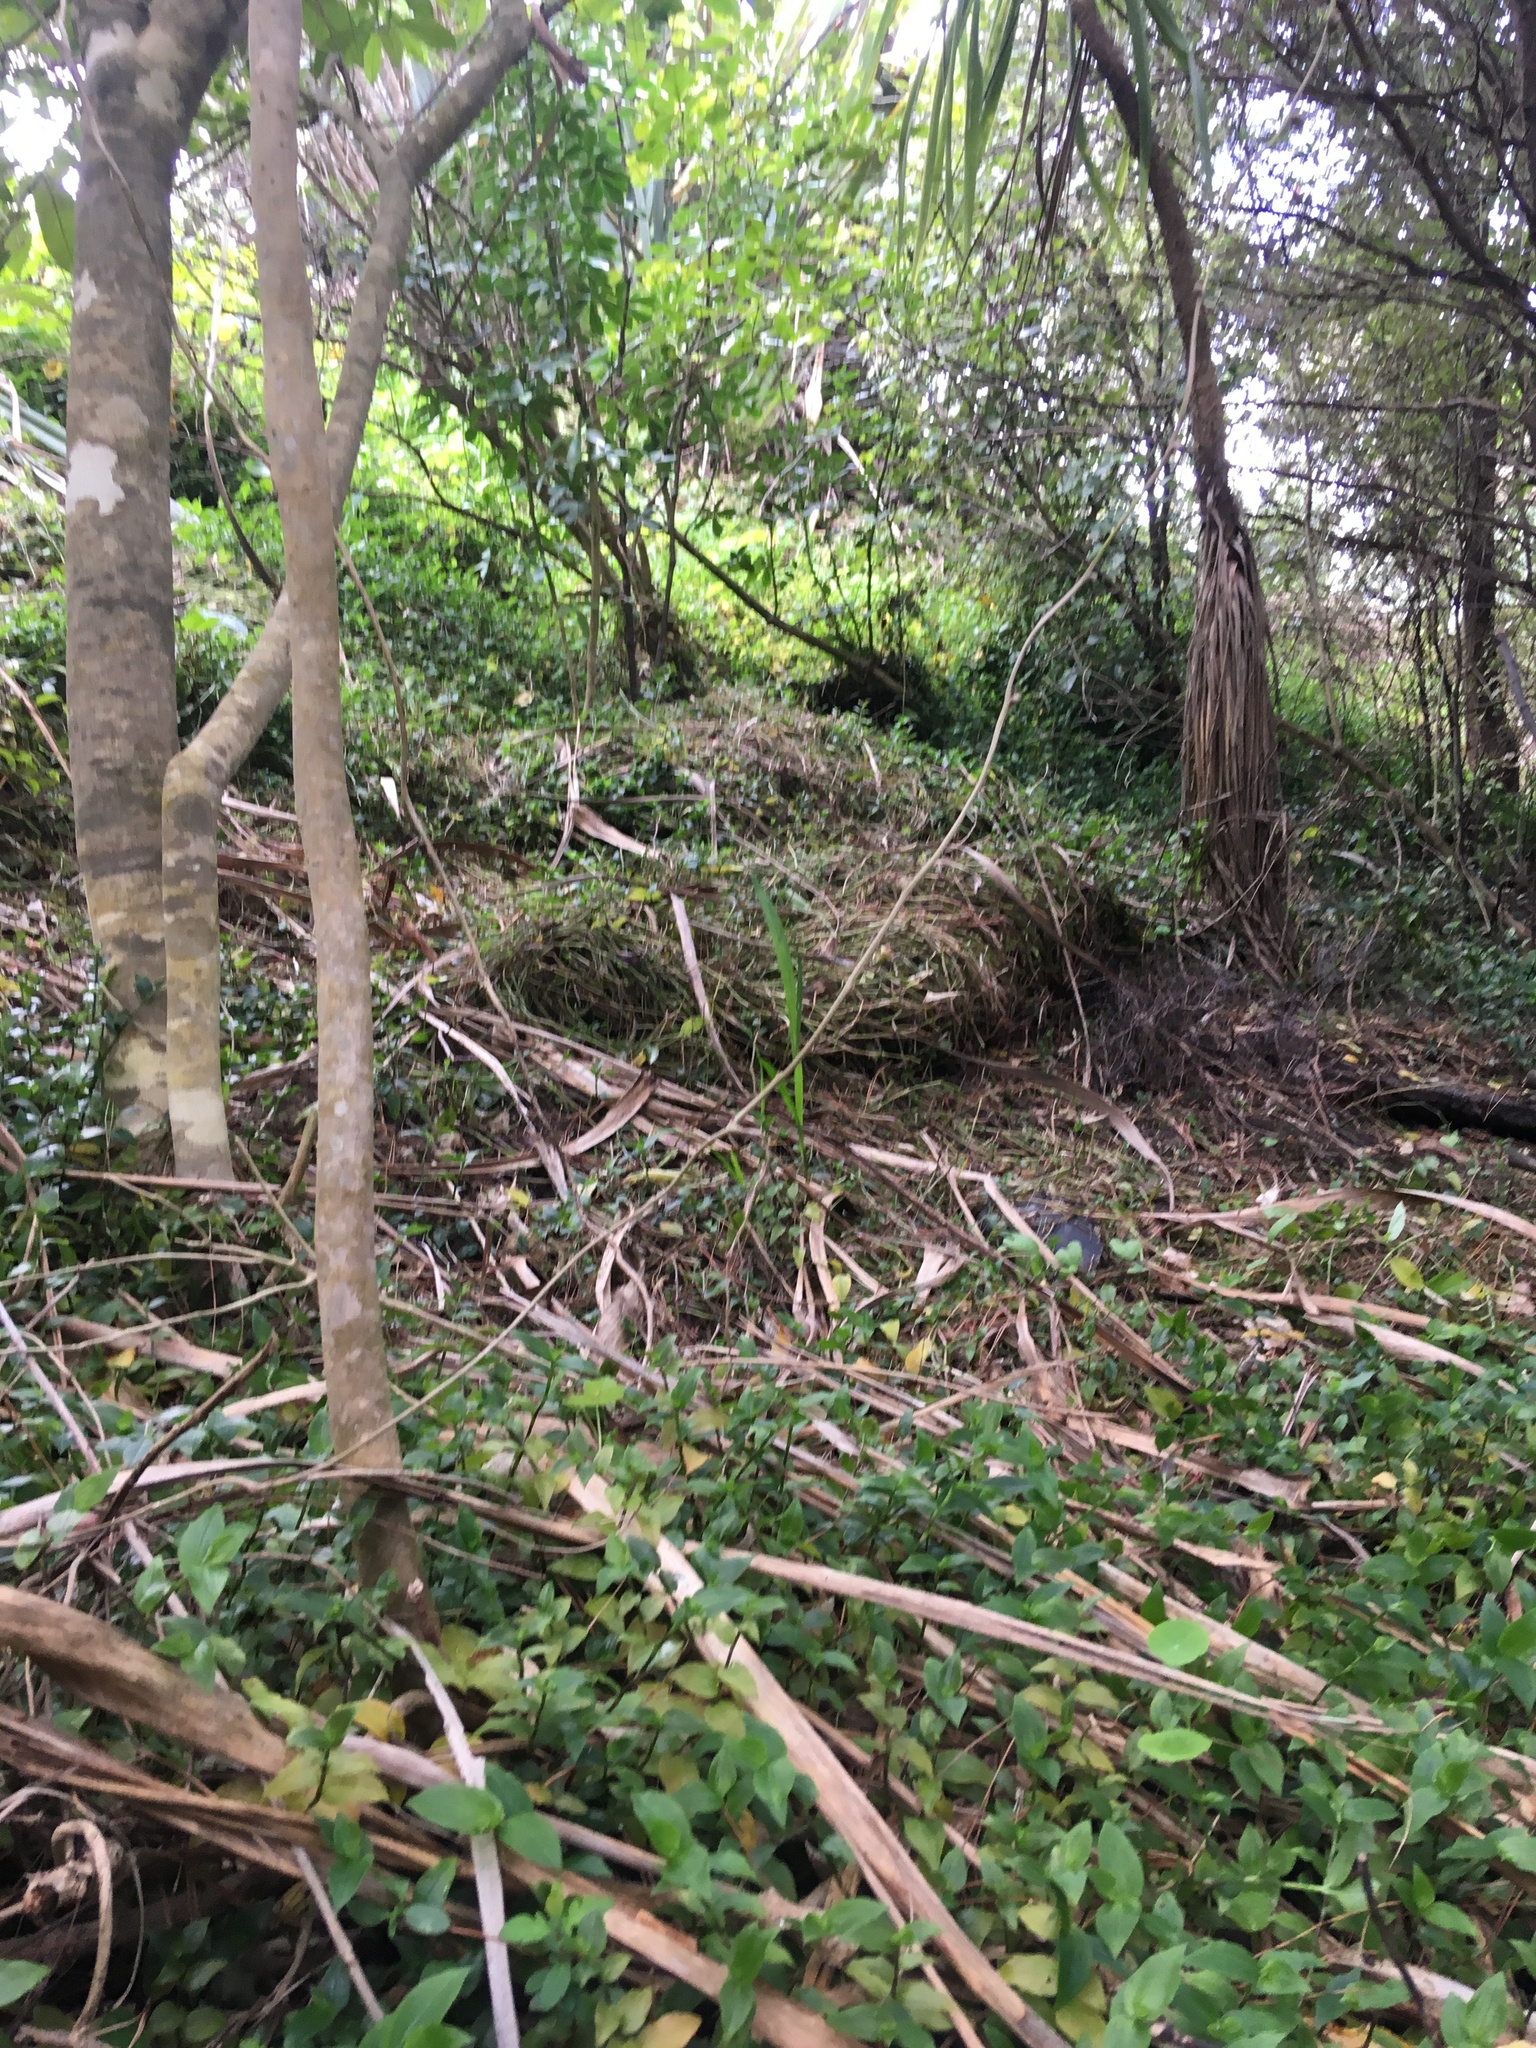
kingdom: Plantae
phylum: Tracheophyta
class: Liliopsida
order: Commelinales
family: Commelinaceae
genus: Tradescantia
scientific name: Tradescantia fluminensis
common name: Wandering-jew
